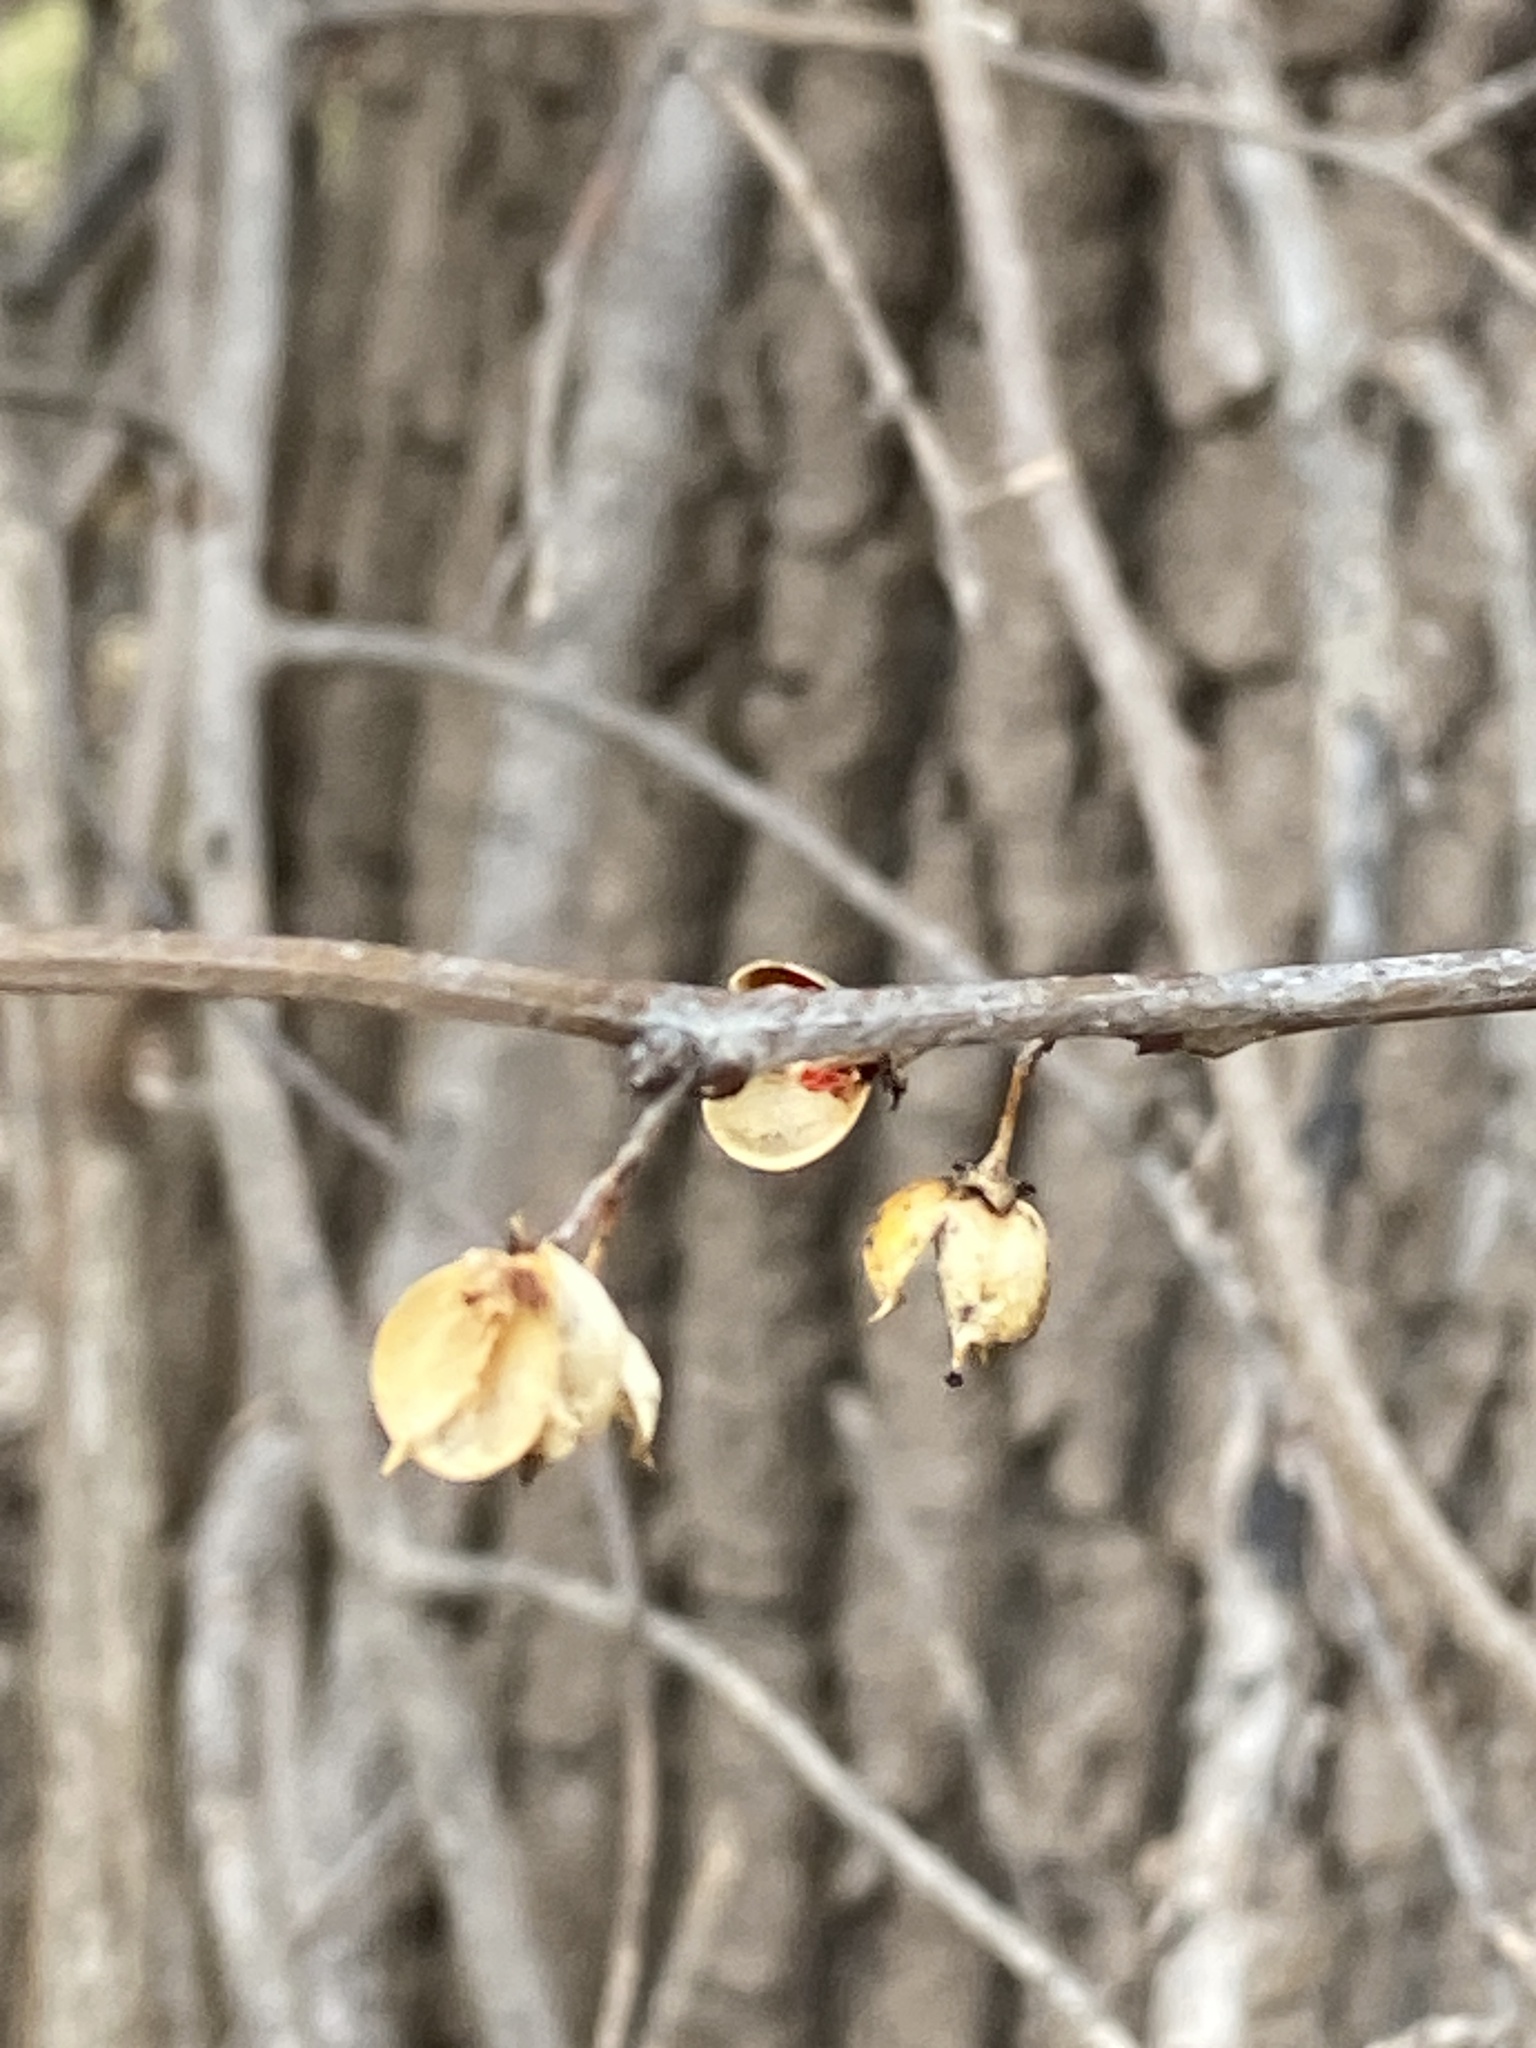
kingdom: Plantae
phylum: Tracheophyta
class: Magnoliopsida
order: Celastrales
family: Celastraceae
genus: Celastrus
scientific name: Celastrus orbiculatus
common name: Oriental bittersweet
